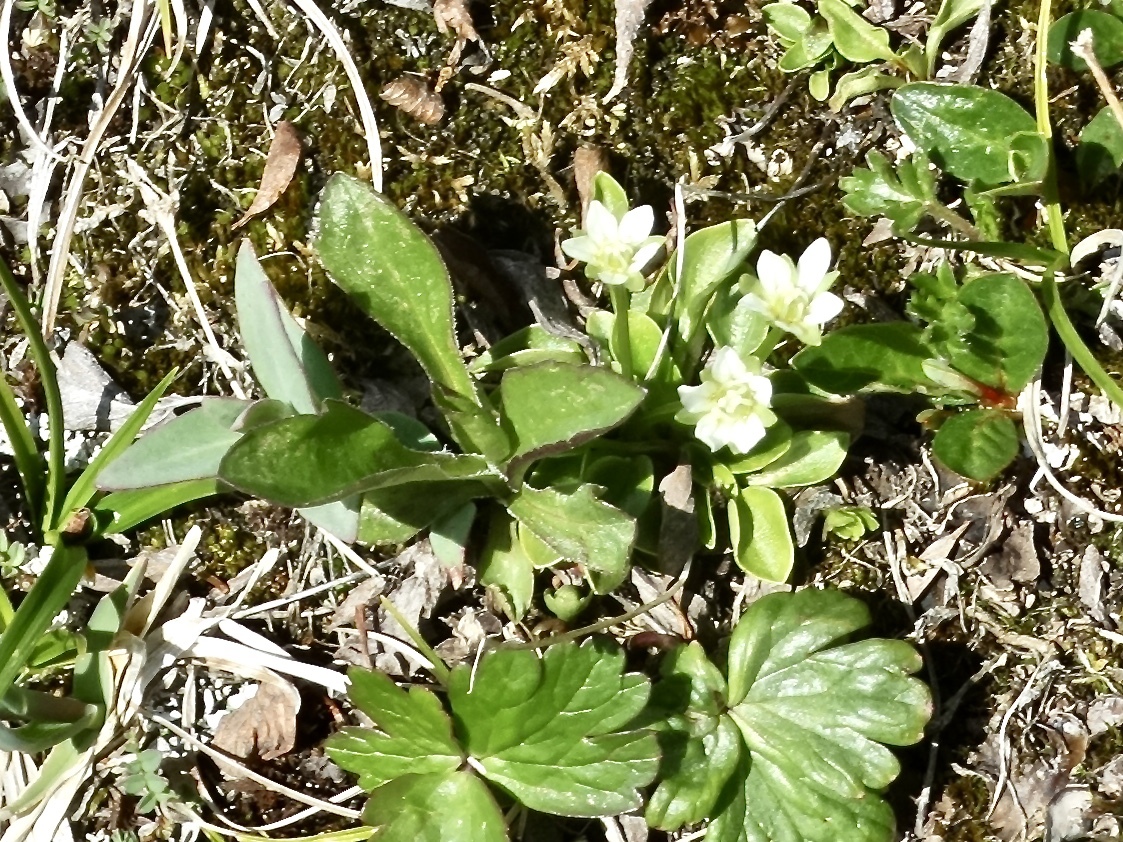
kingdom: Plantae
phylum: Tracheophyta
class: Magnoliopsida
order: Celastrales
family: Parnassiaceae
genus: Parnassia
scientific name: Parnassia kotzebuei
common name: Kotzebue's grass-of-parnassus
